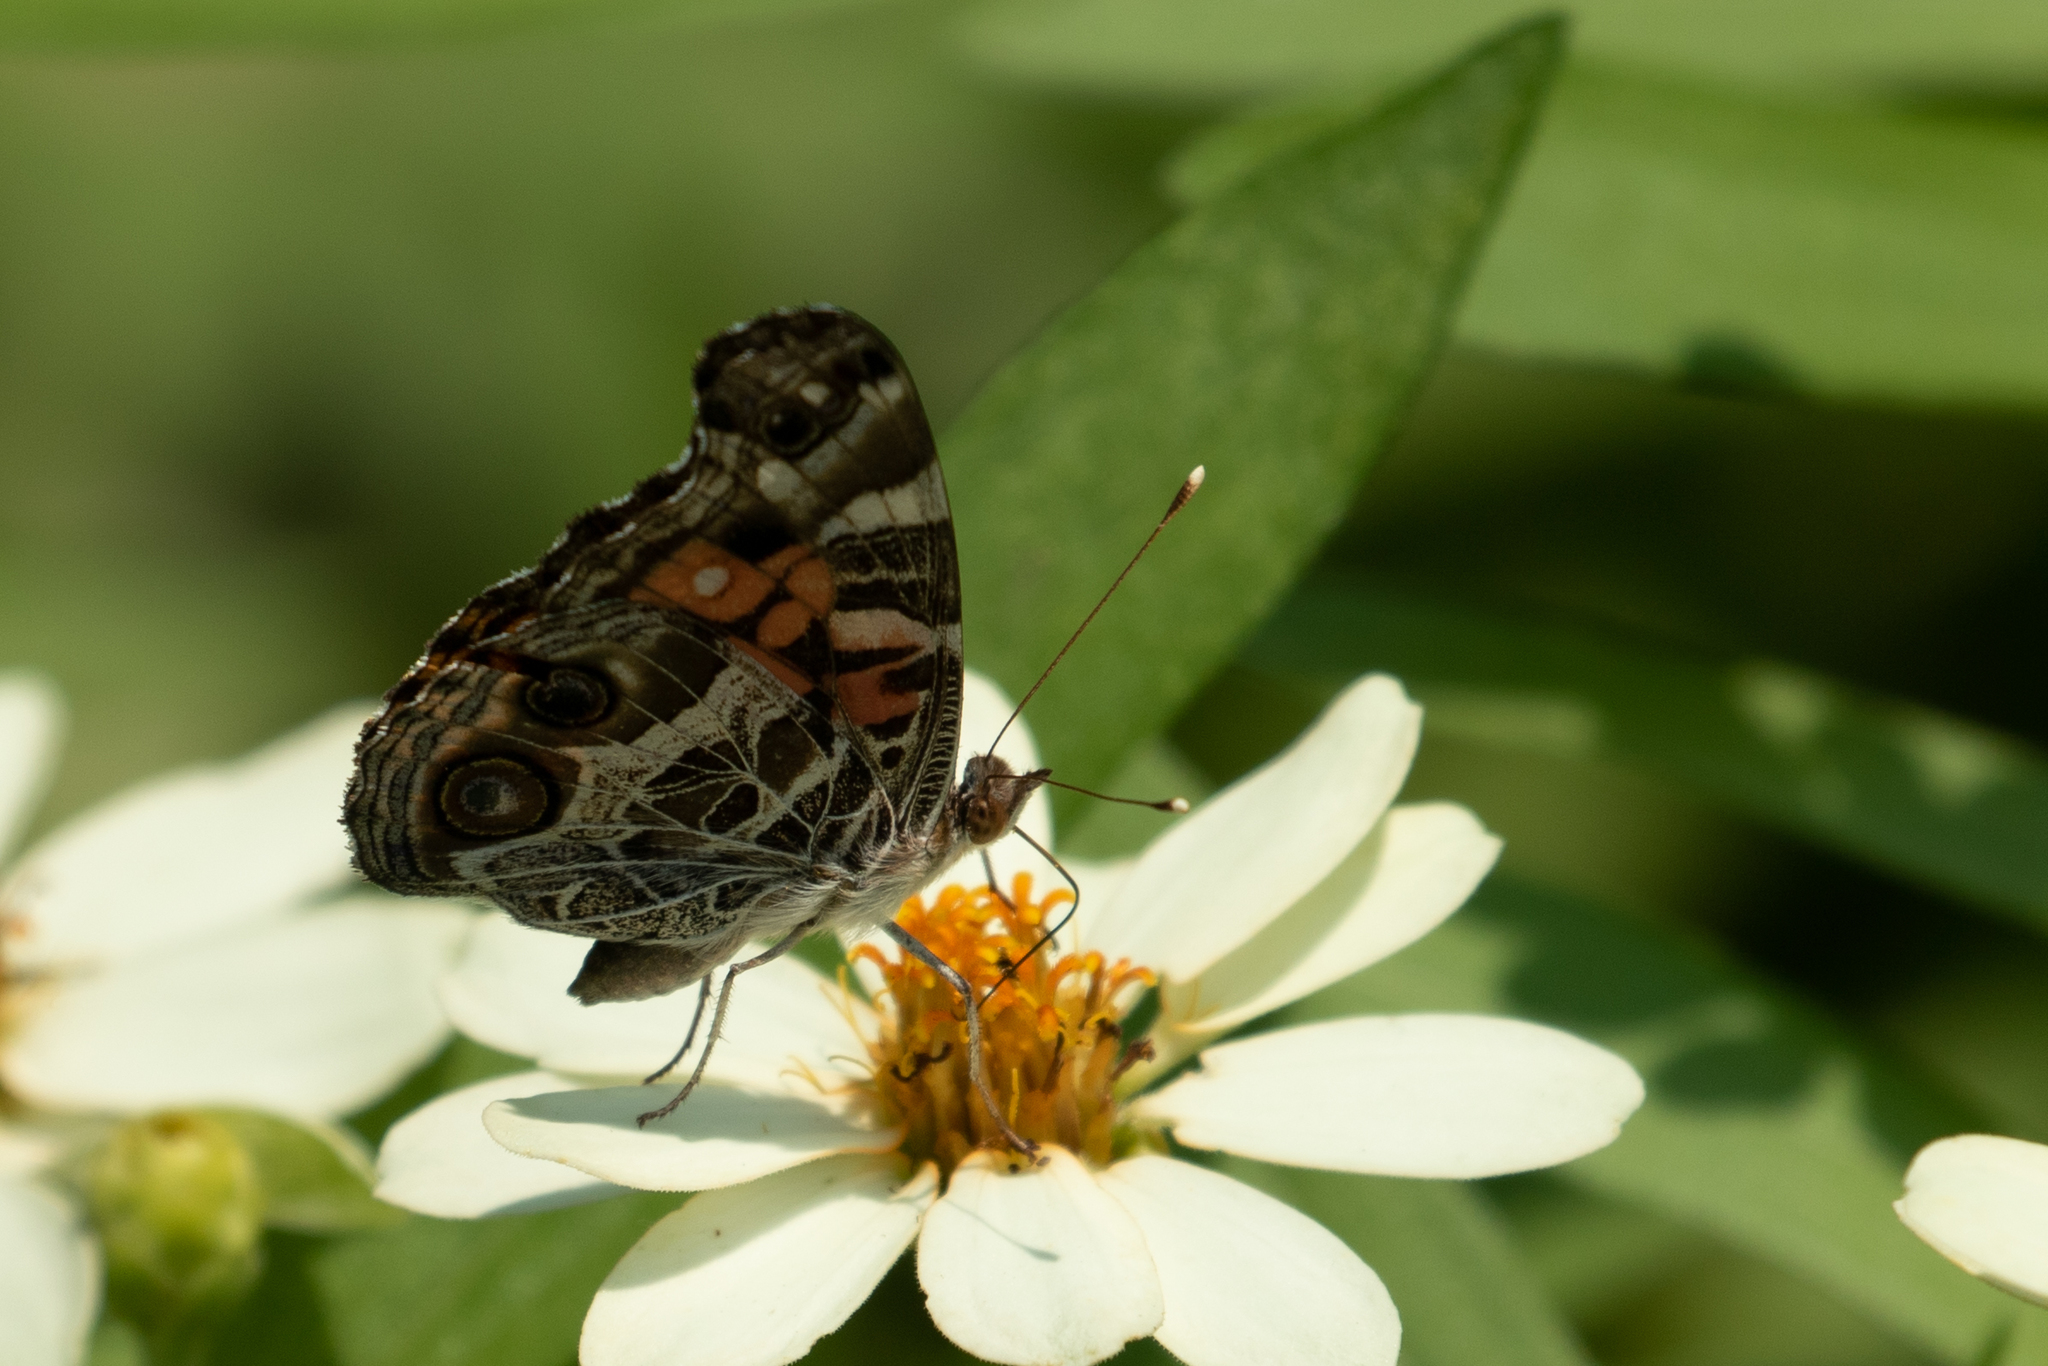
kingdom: Animalia
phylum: Arthropoda
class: Insecta
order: Lepidoptera
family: Nymphalidae
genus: Vanessa
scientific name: Vanessa virginiensis
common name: American lady
